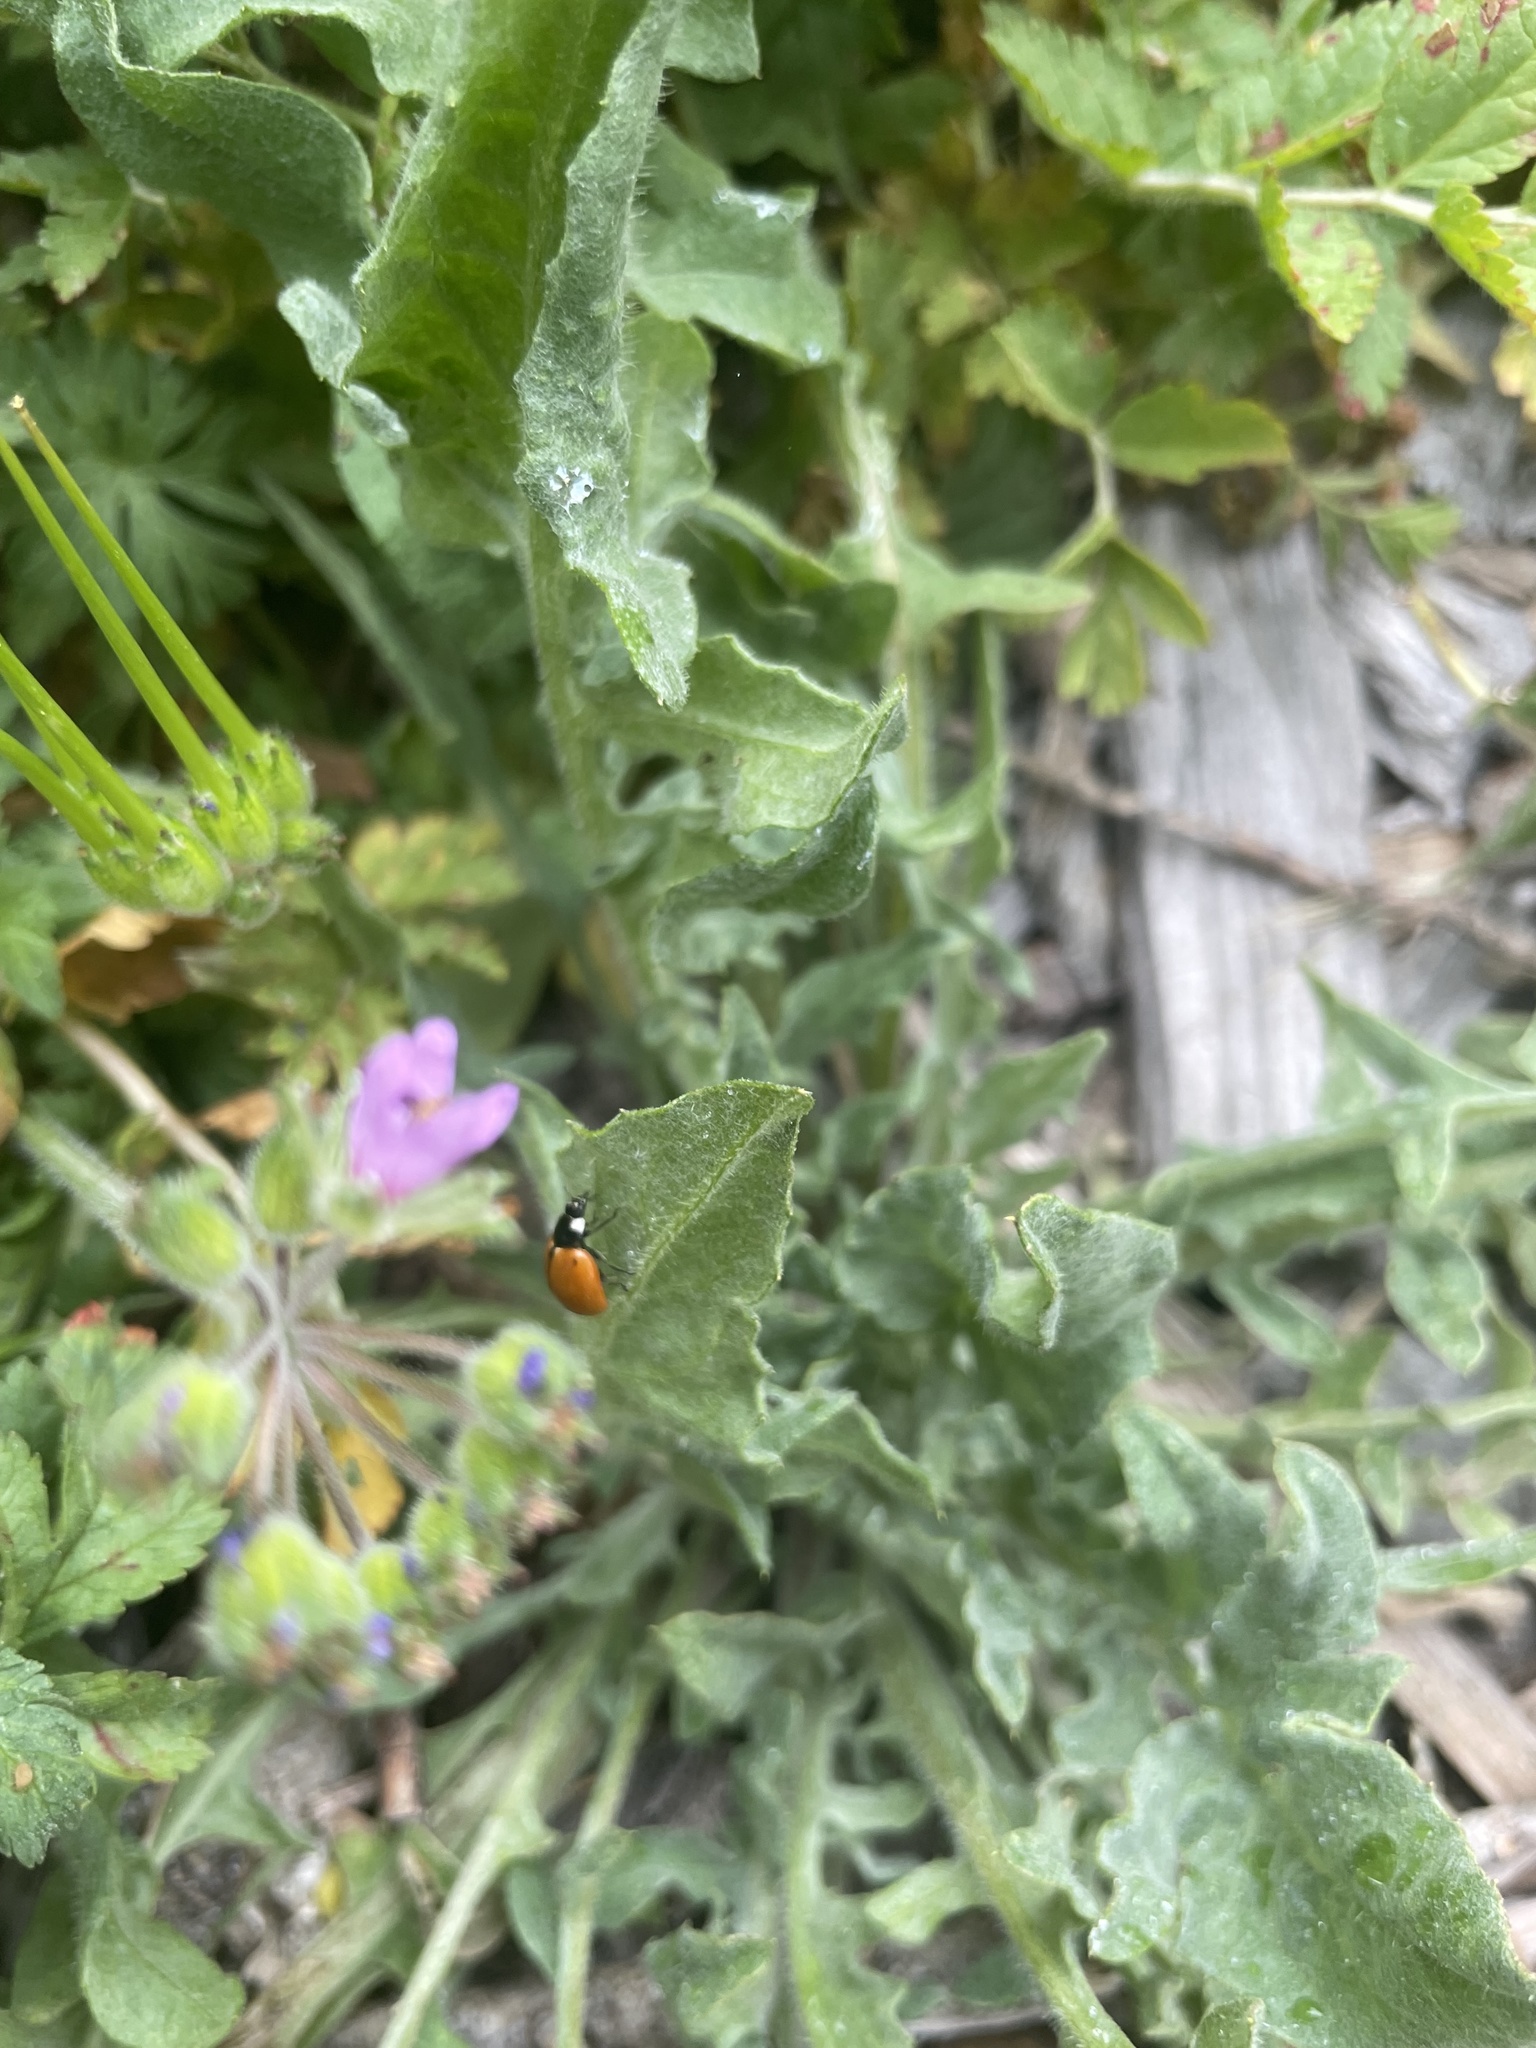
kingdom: Animalia
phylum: Arthropoda
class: Insecta
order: Coleoptera
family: Coccinellidae
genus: Coccinella
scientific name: Coccinella californica
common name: Lady beetle
